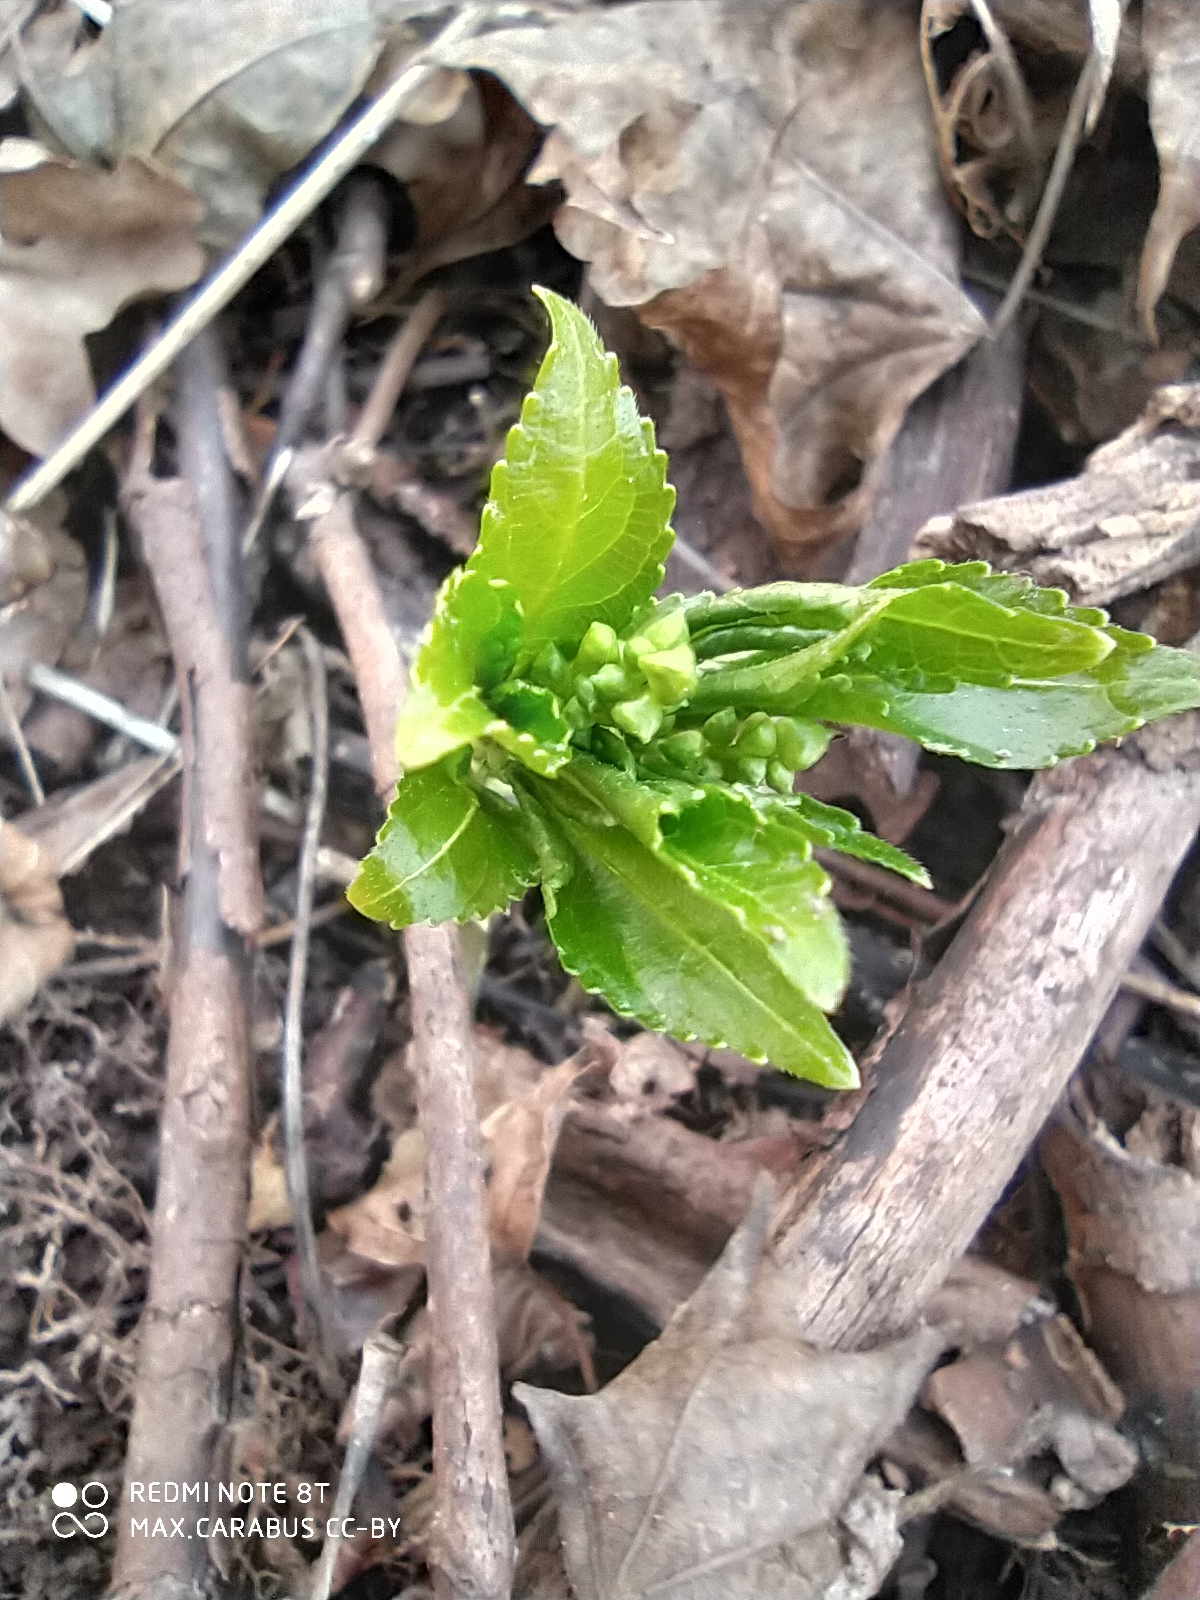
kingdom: Plantae
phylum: Tracheophyta
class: Magnoliopsida
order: Malpighiales
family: Euphorbiaceae
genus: Mercurialis
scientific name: Mercurialis perennis
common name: Dog mercury
